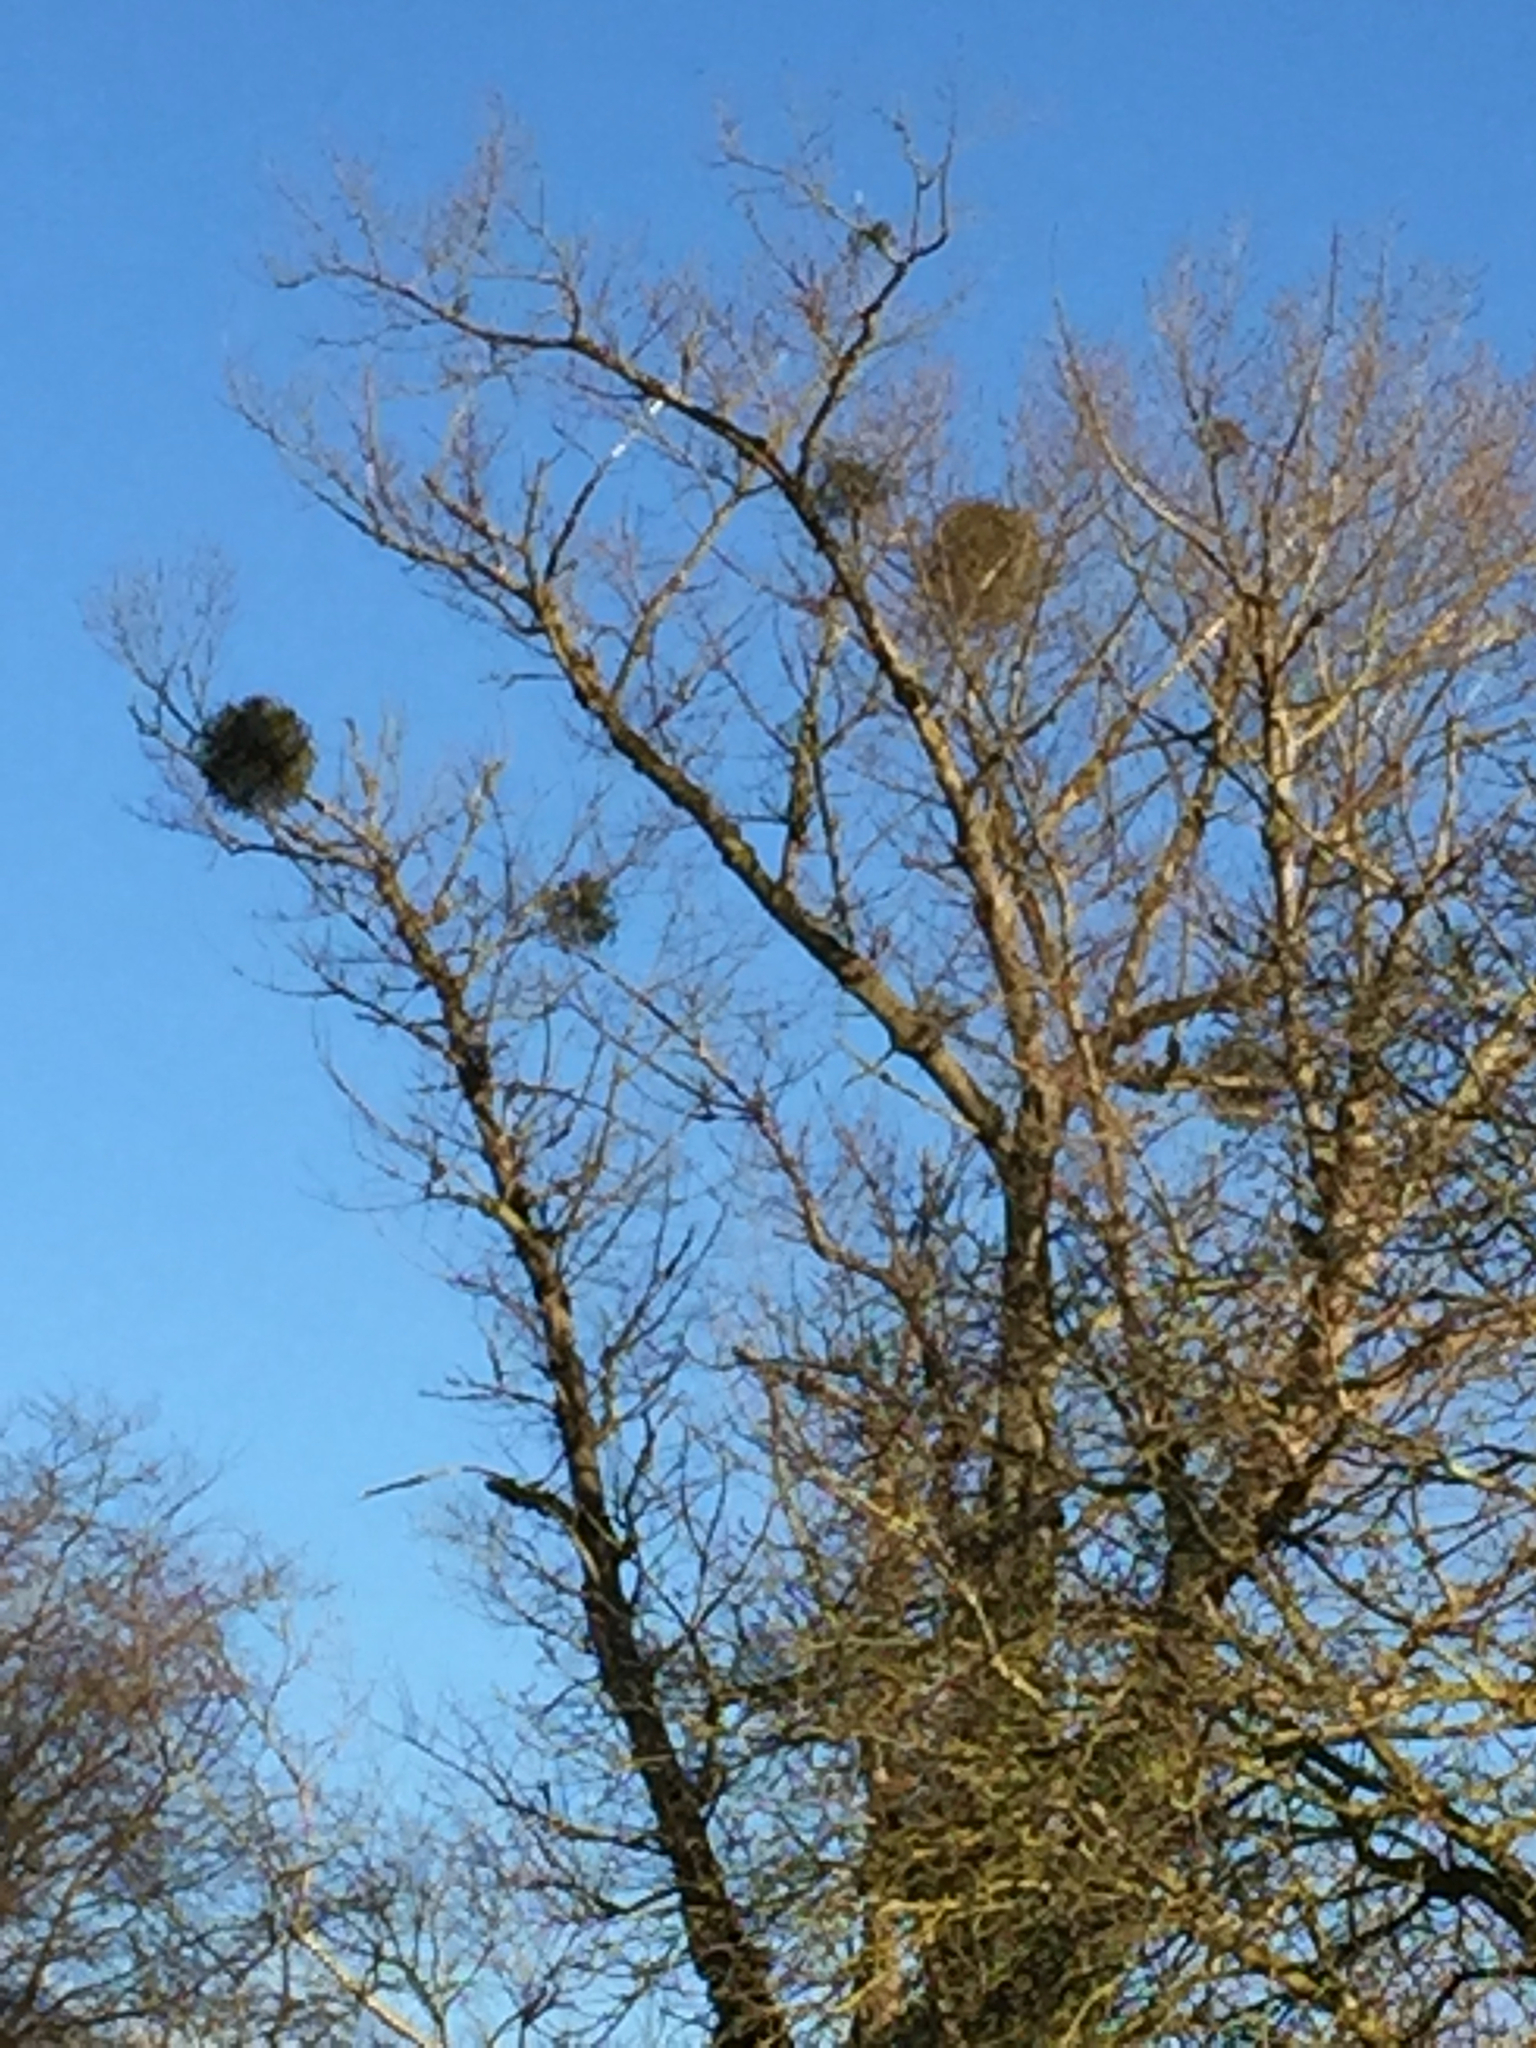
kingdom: Plantae
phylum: Tracheophyta
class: Magnoliopsida
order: Santalales
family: Viscaceae
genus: Viscum
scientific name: Viscum album
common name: Mistletoe
